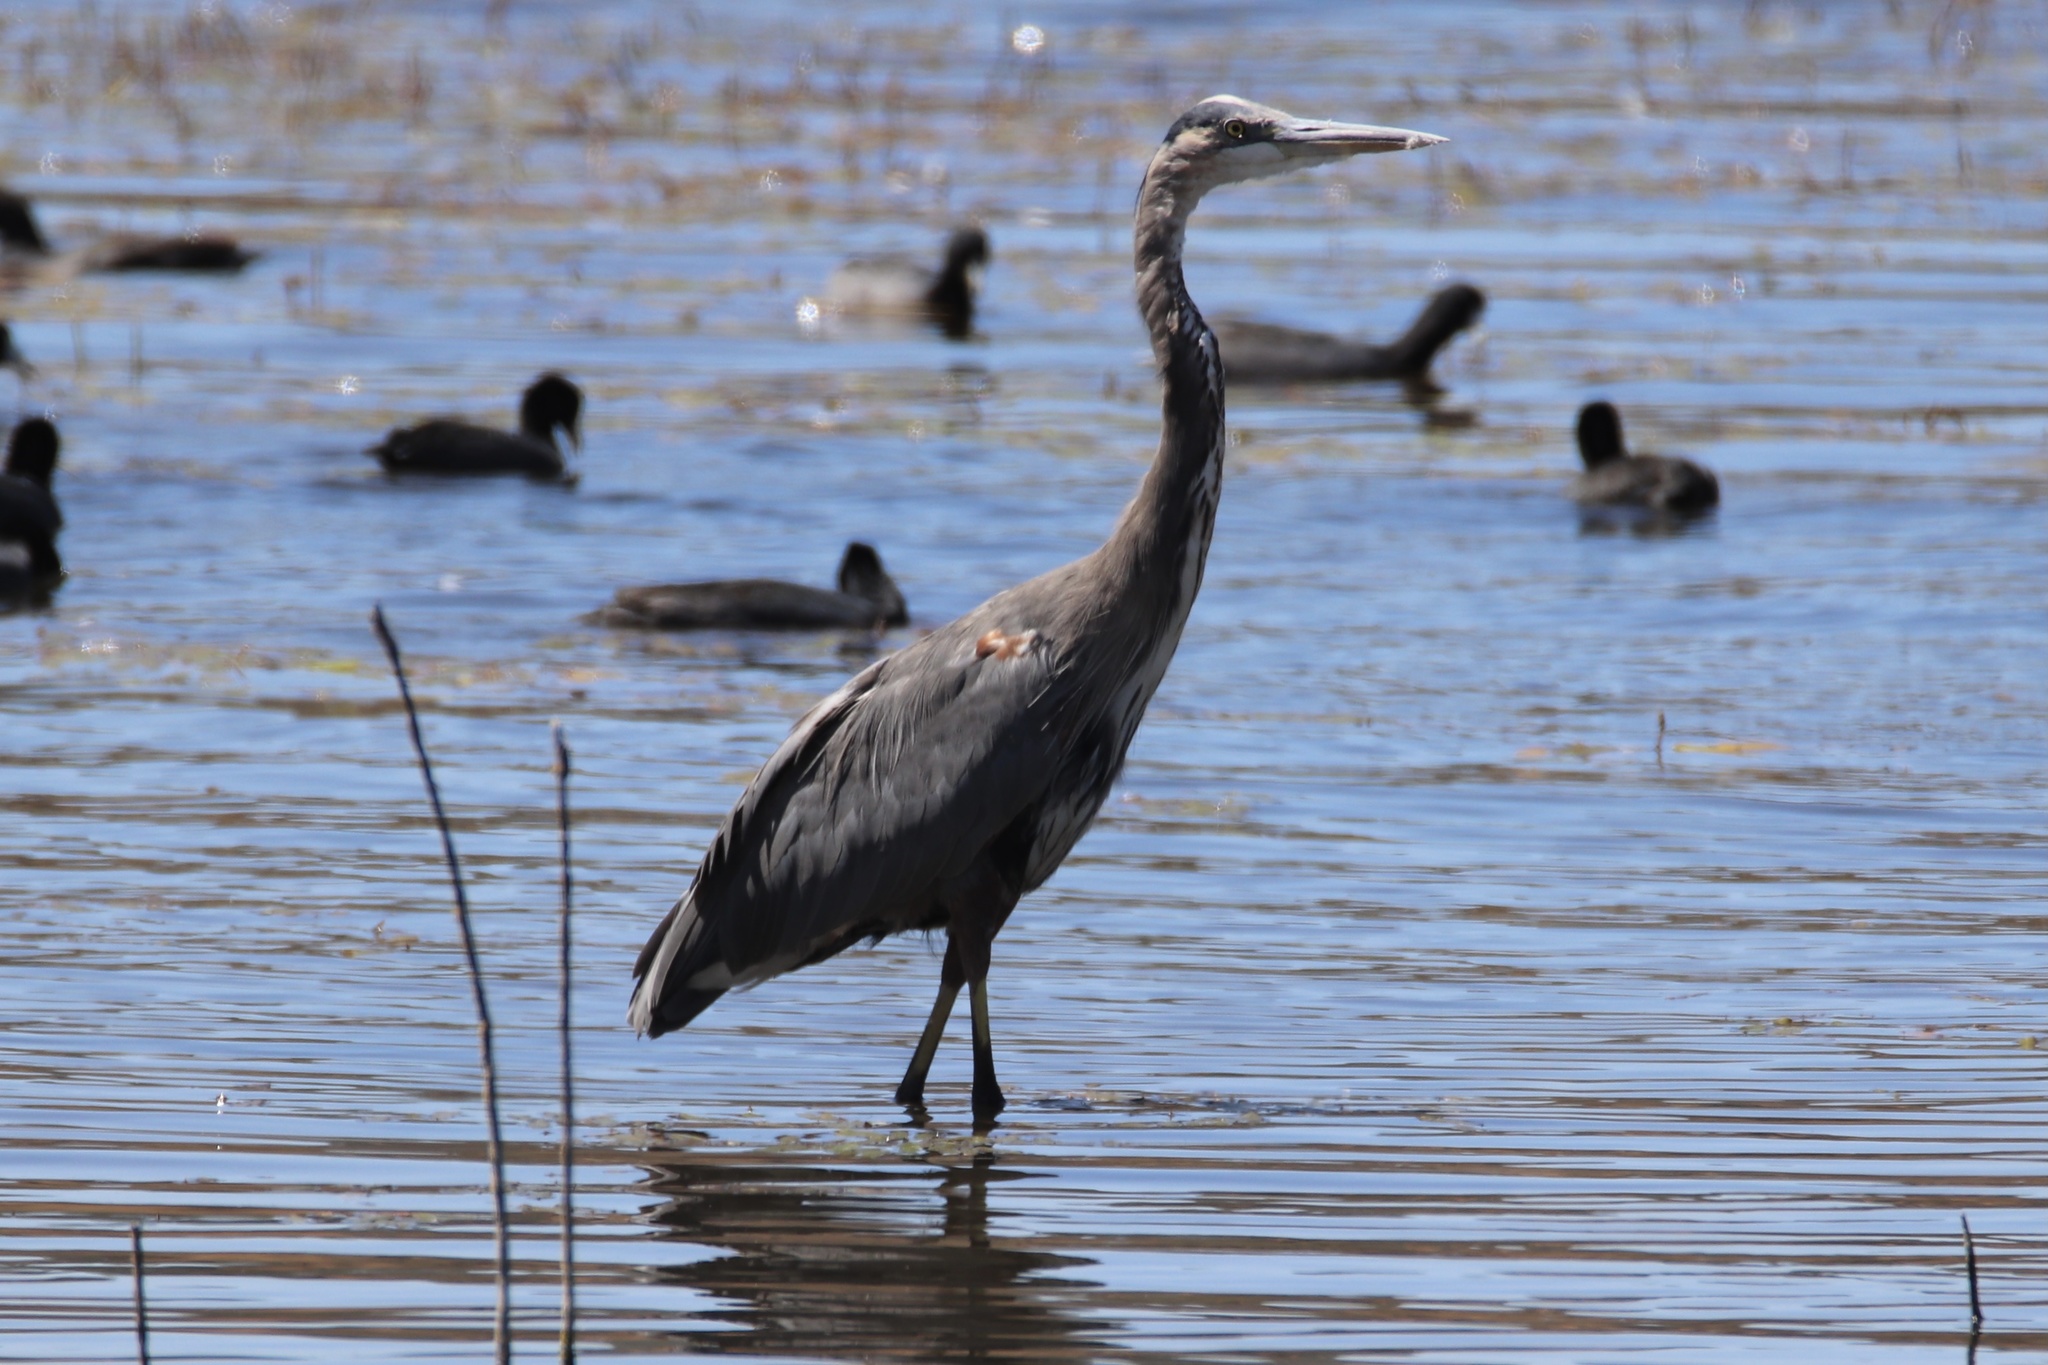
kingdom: Animalia
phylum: Chordata
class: Aves
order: Pelecaniformes
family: Ardeidae
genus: Ardea
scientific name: Ardea herodias
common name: Great blue heron
